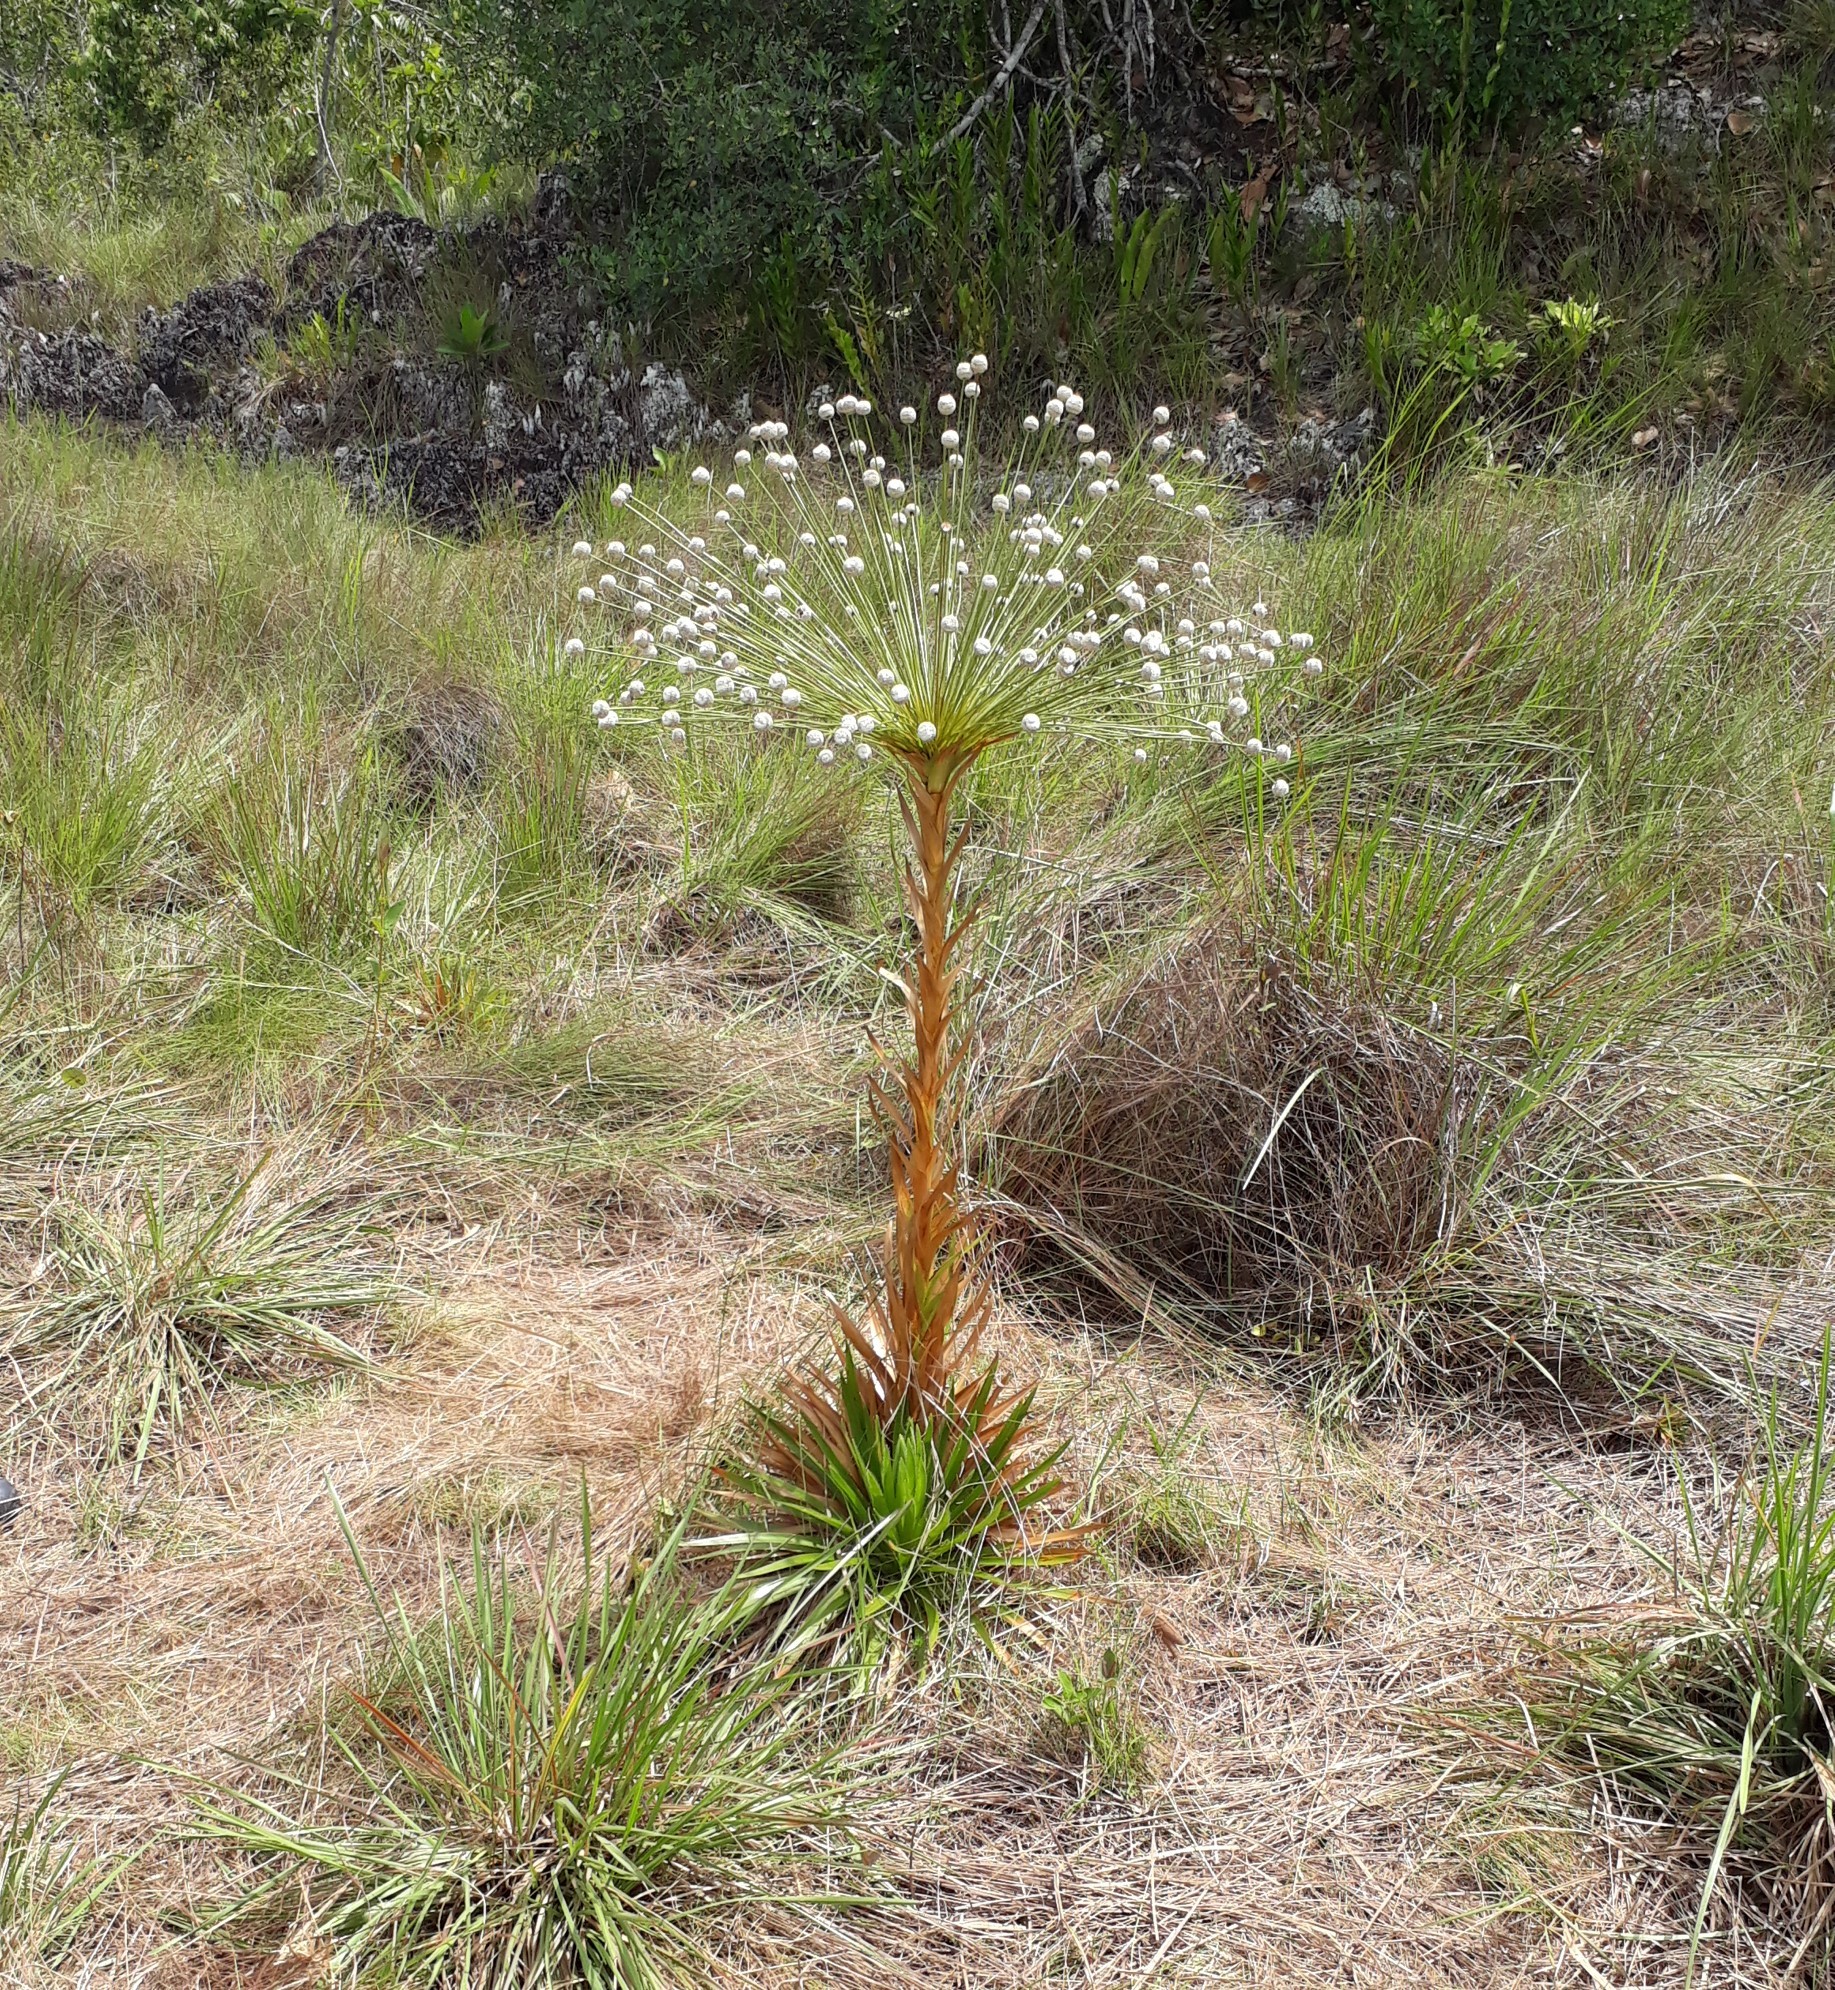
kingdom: Plantae
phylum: Tracheophyta
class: Liliopsida
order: Poales
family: Eriocaulaceae
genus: Paepalanthus
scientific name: Paepalanthus chiquitensis
